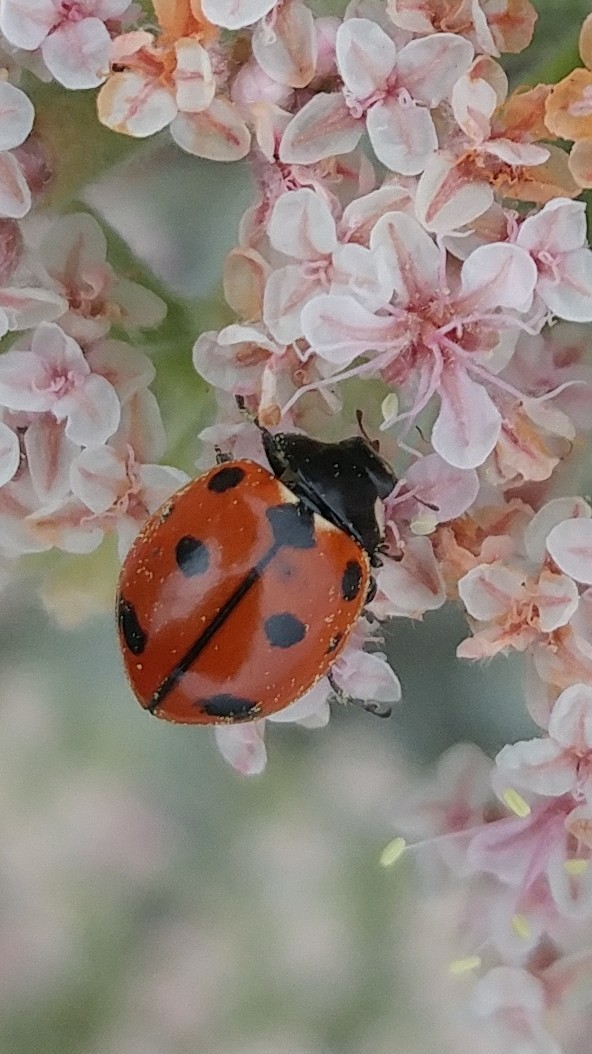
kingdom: Animalia
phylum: Arthropoda
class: Insecta
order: Coleoptera
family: Coccinellidae
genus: Coccinella
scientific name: Coccinella californica
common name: Lady beetle
